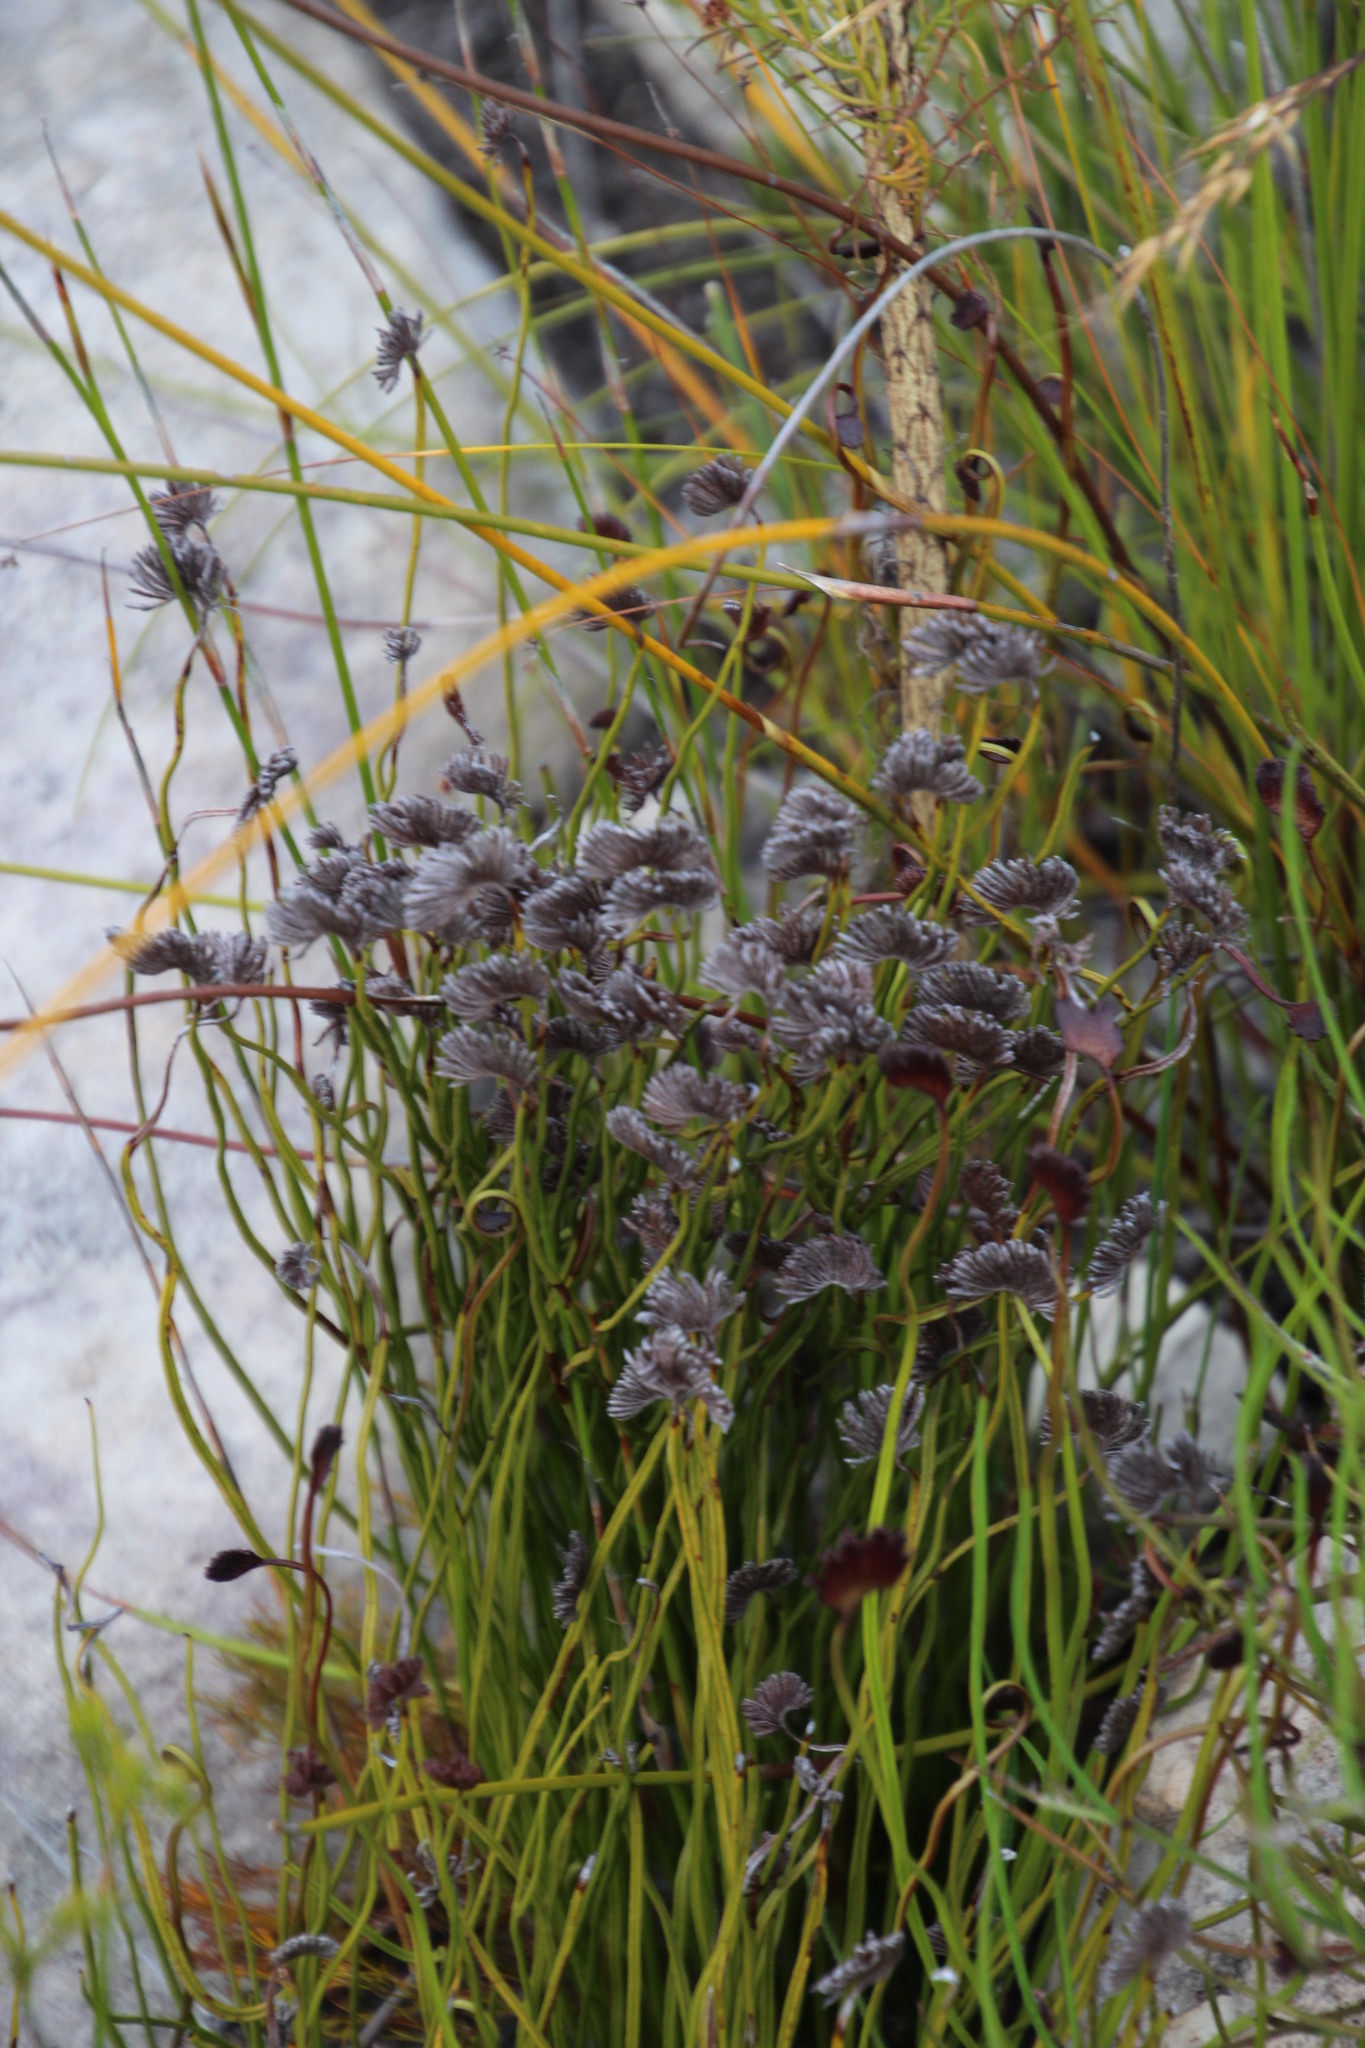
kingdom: Plantae
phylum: Tracheophyta
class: Polypodiopsida
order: Schizaeales
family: Schizaeaceae
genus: Schizaea
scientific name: Schizaea pectinata
